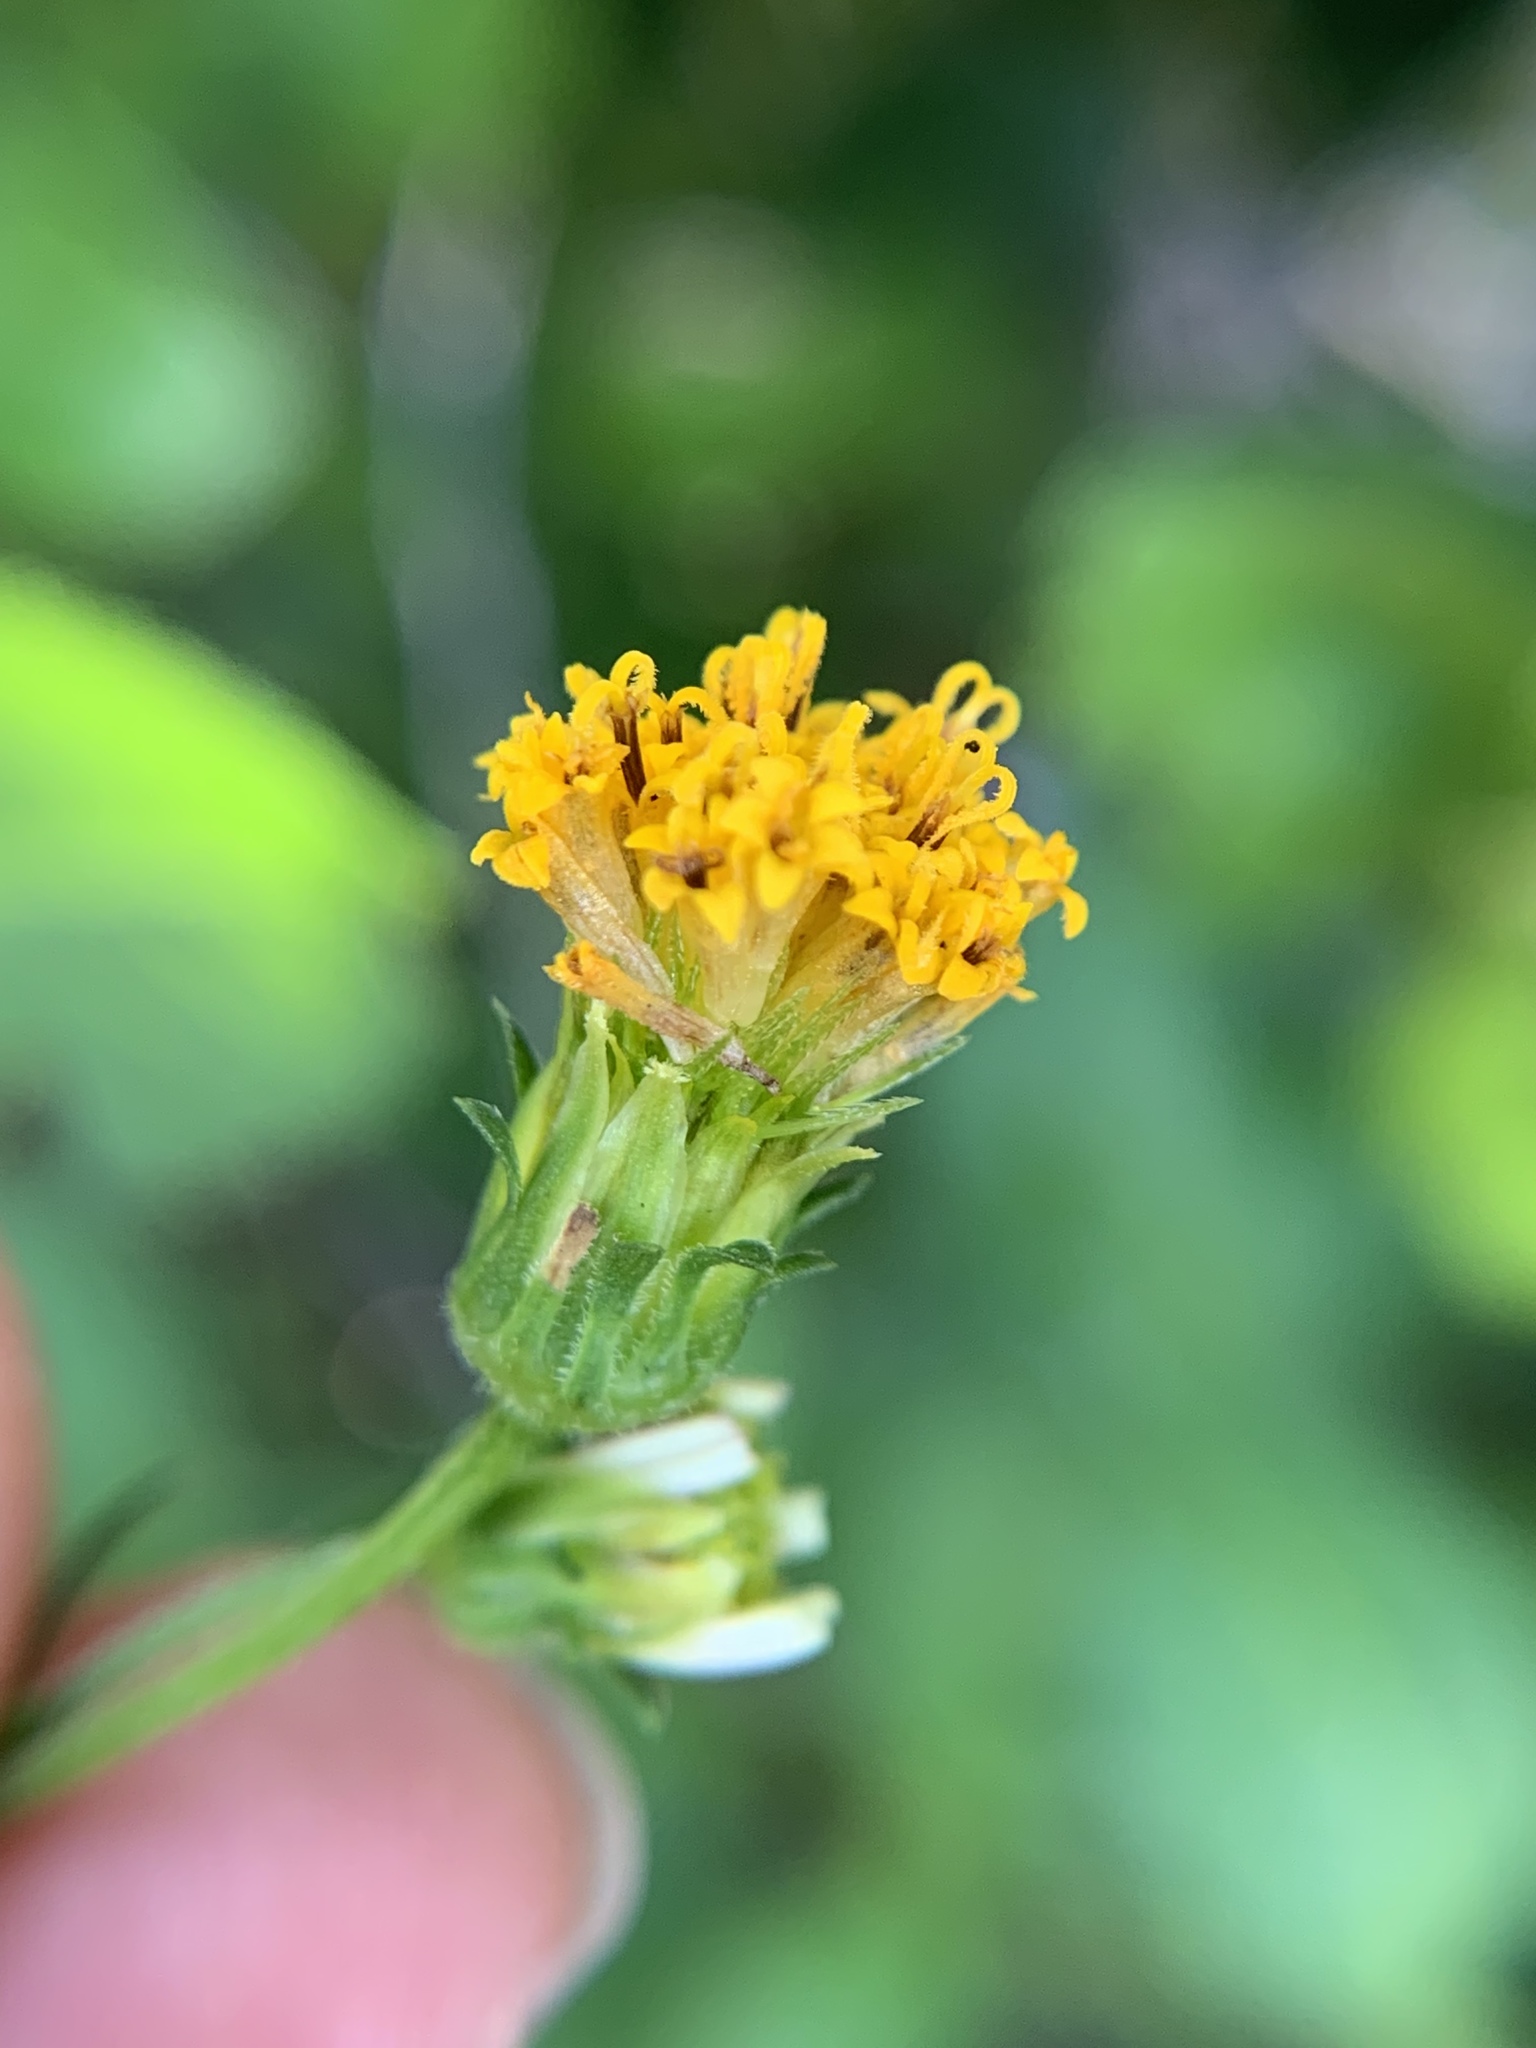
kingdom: Plantae
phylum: Tracheophyta
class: Magnoliopsida
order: Asterales
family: Asteraceae
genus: Bidens
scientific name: Bidens alba
